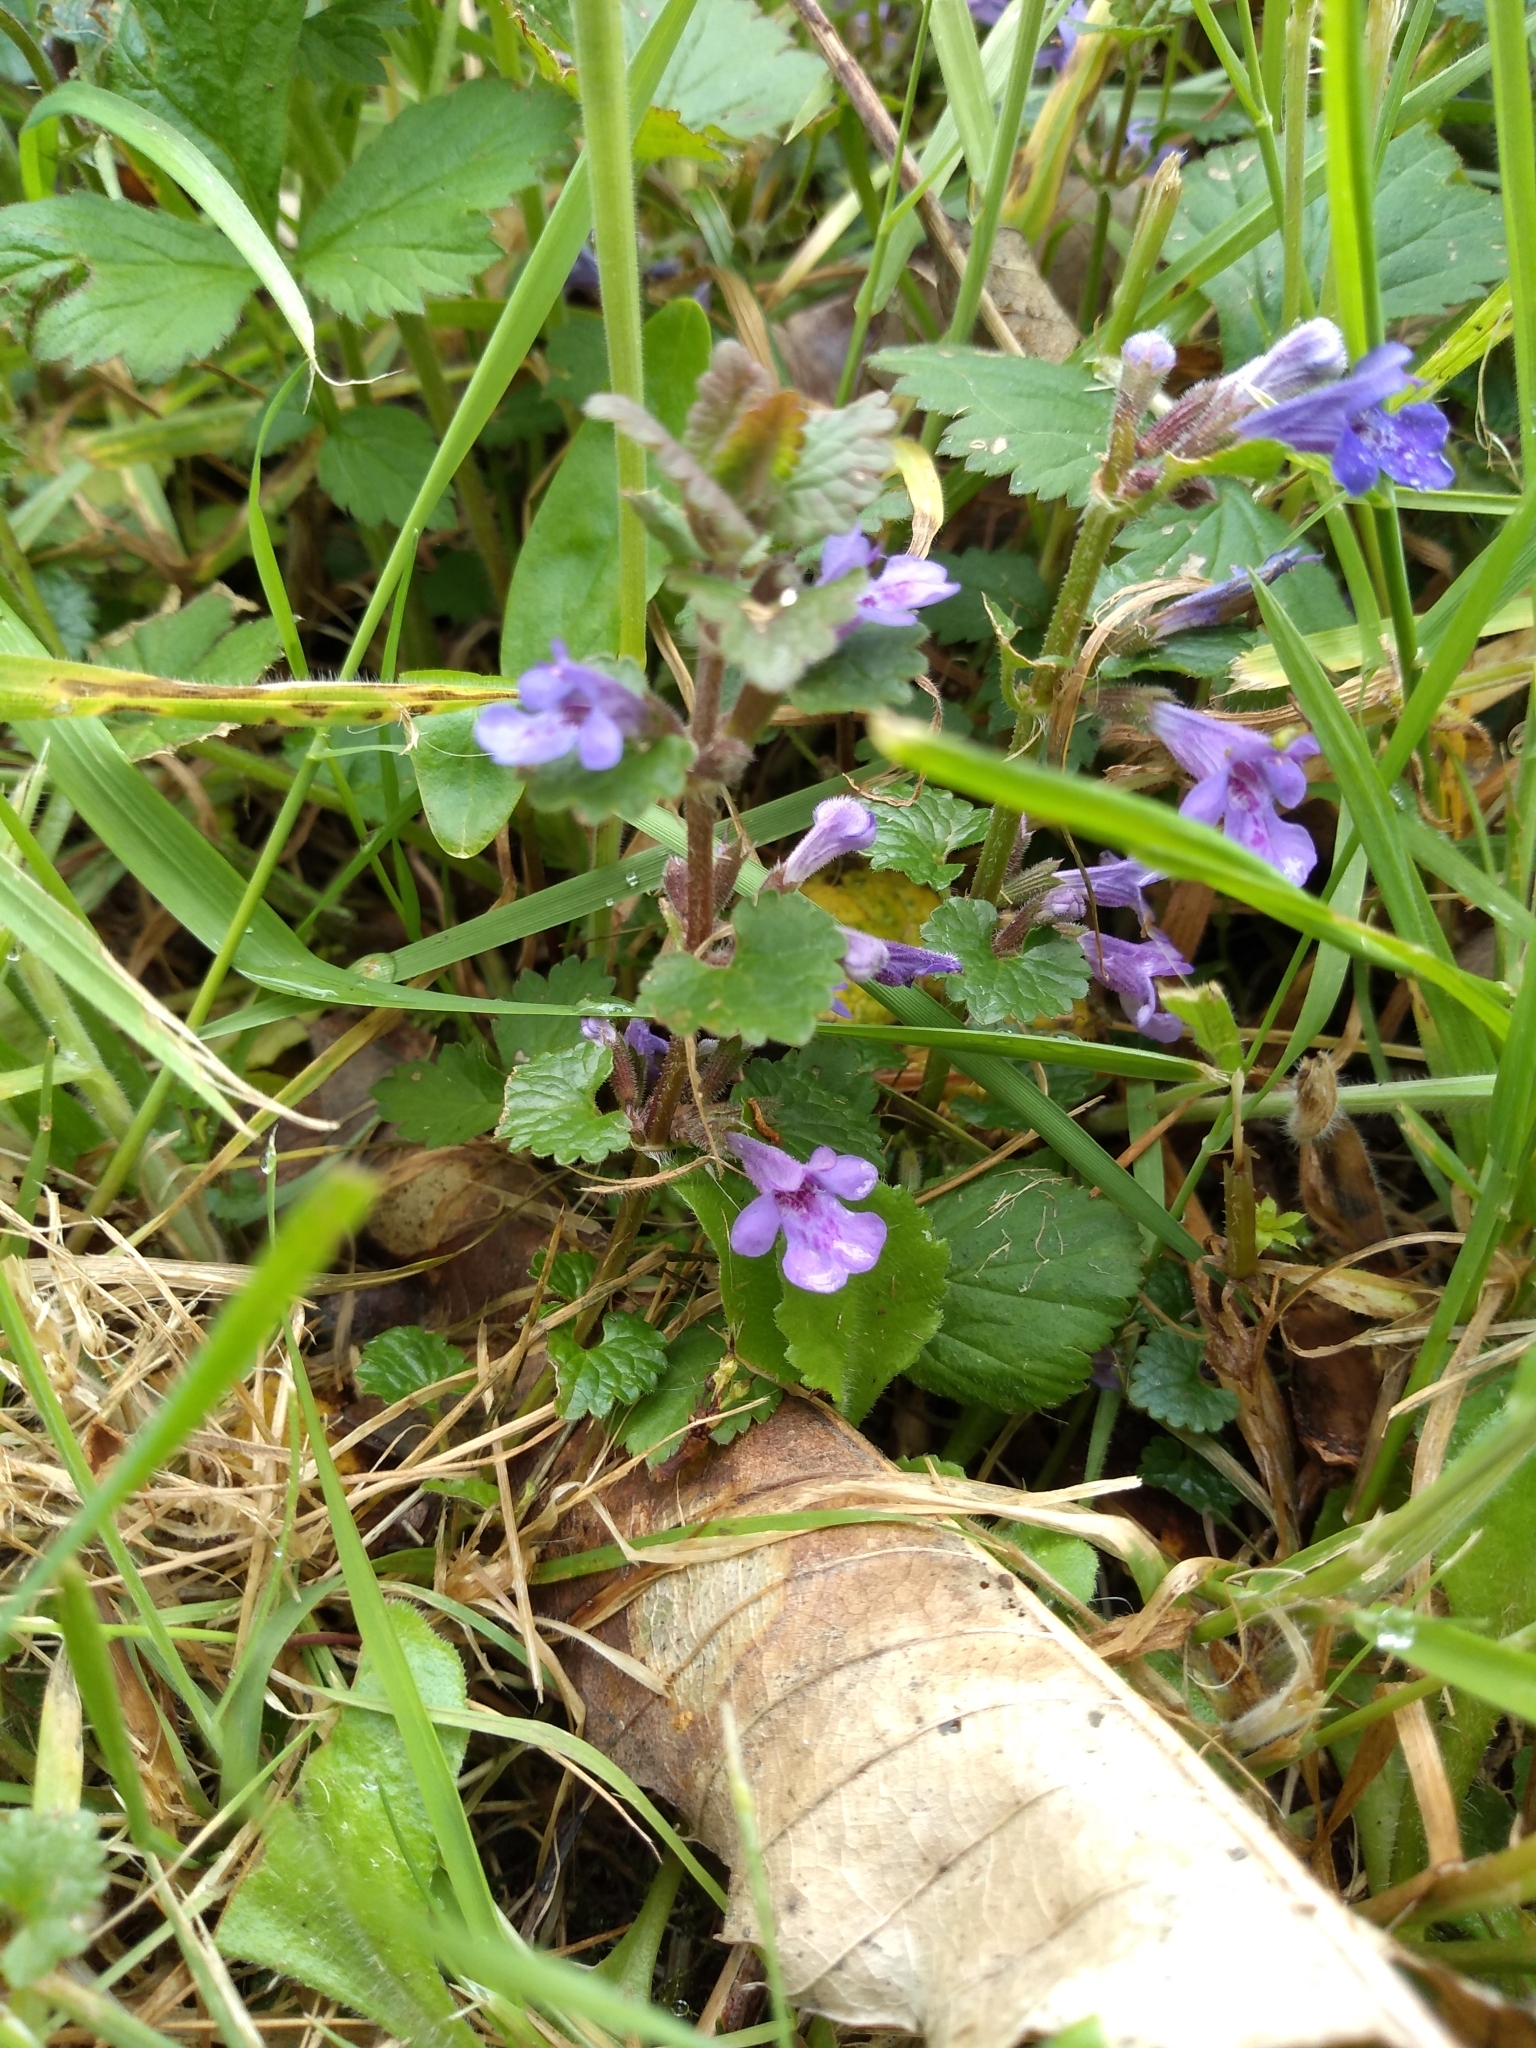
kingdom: Plantae
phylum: Tracheophyta
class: Magnoliopsida
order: Lamiales
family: Lamiaceae
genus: Glechoma
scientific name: Glechoma hederacea
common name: Ground ivy
